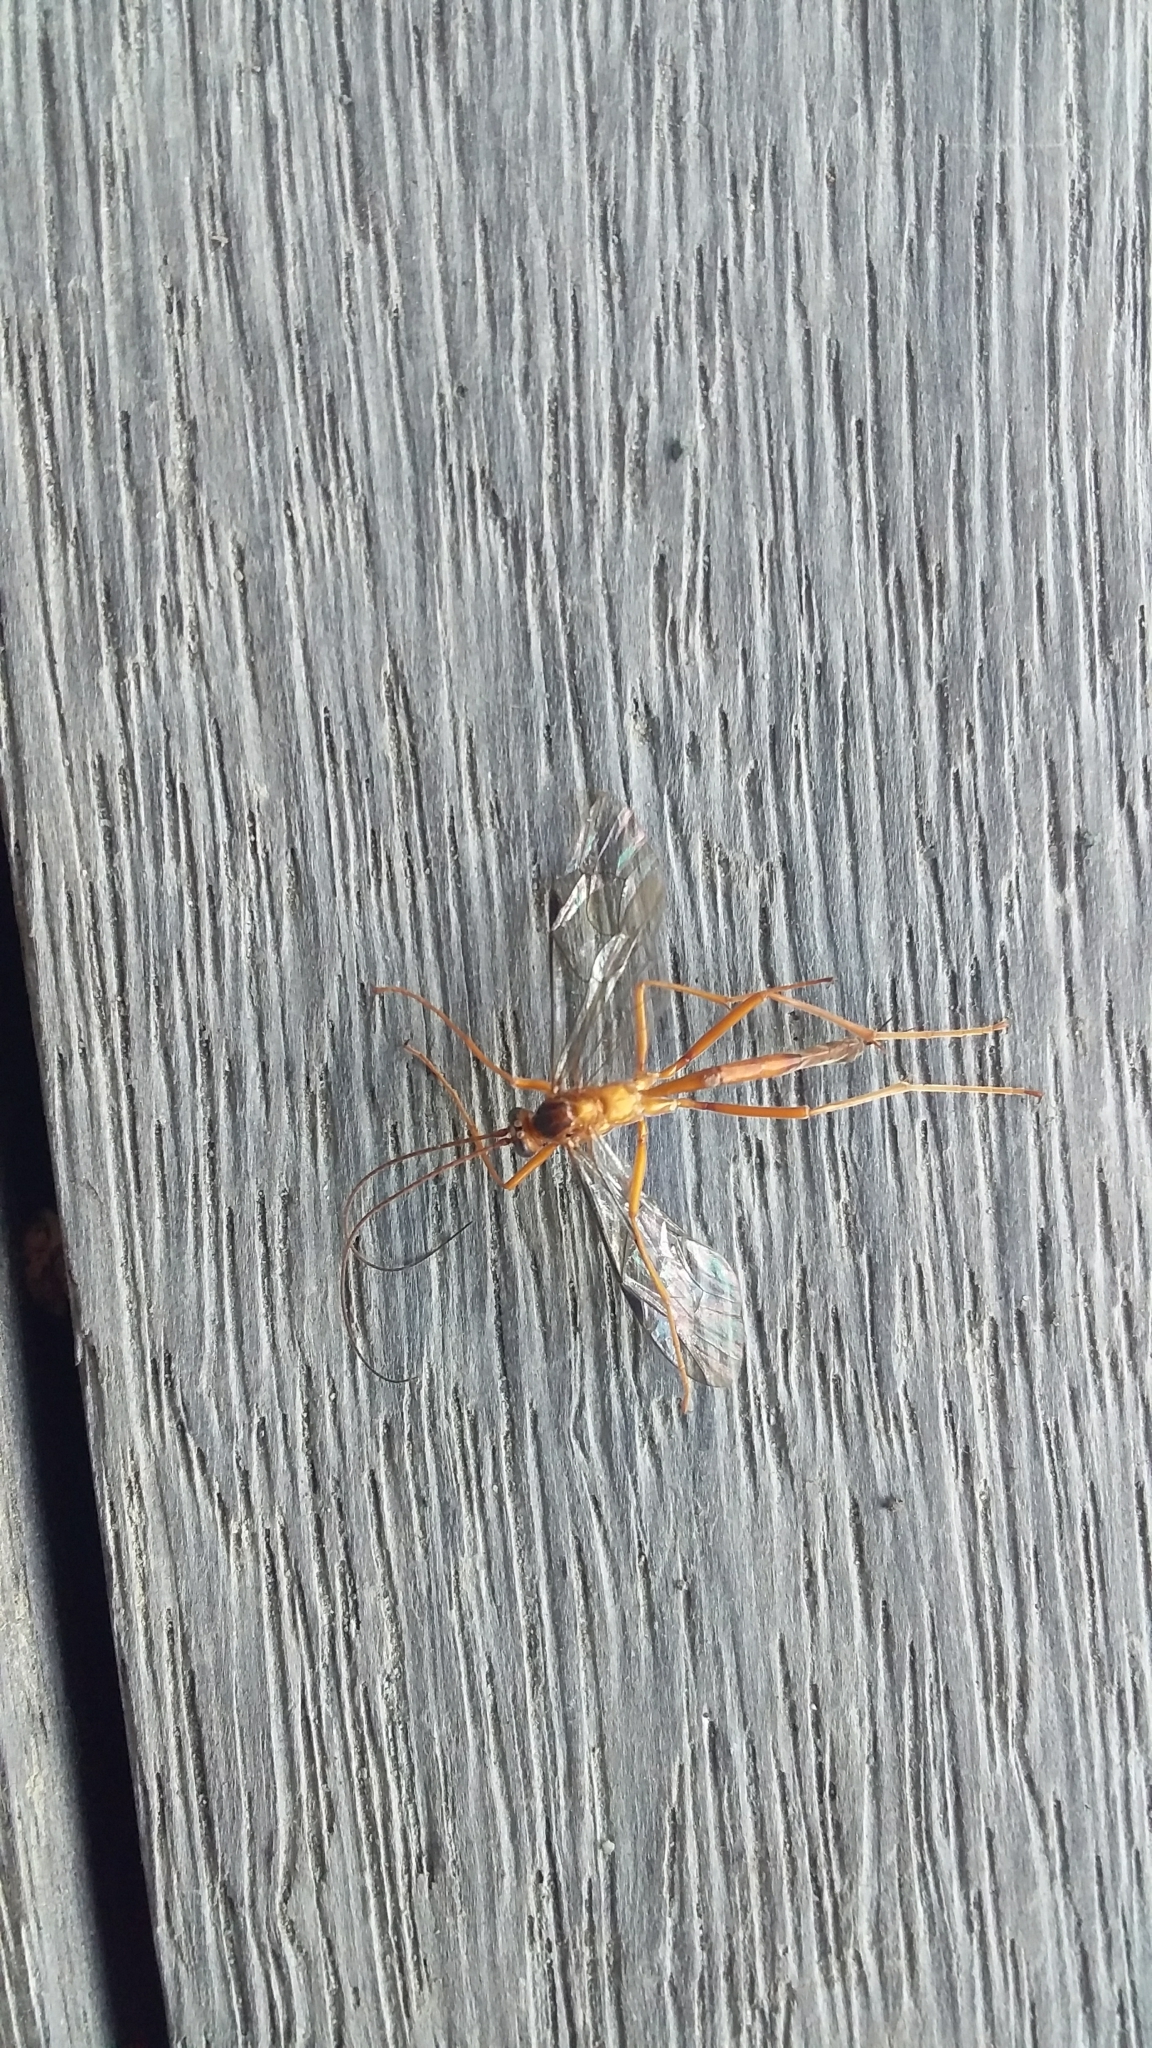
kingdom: Animalia
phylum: Arthropoda
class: Insecta
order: Hymenoptera
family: Ichneumonidae
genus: Netelia
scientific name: Netelia ephippiata
